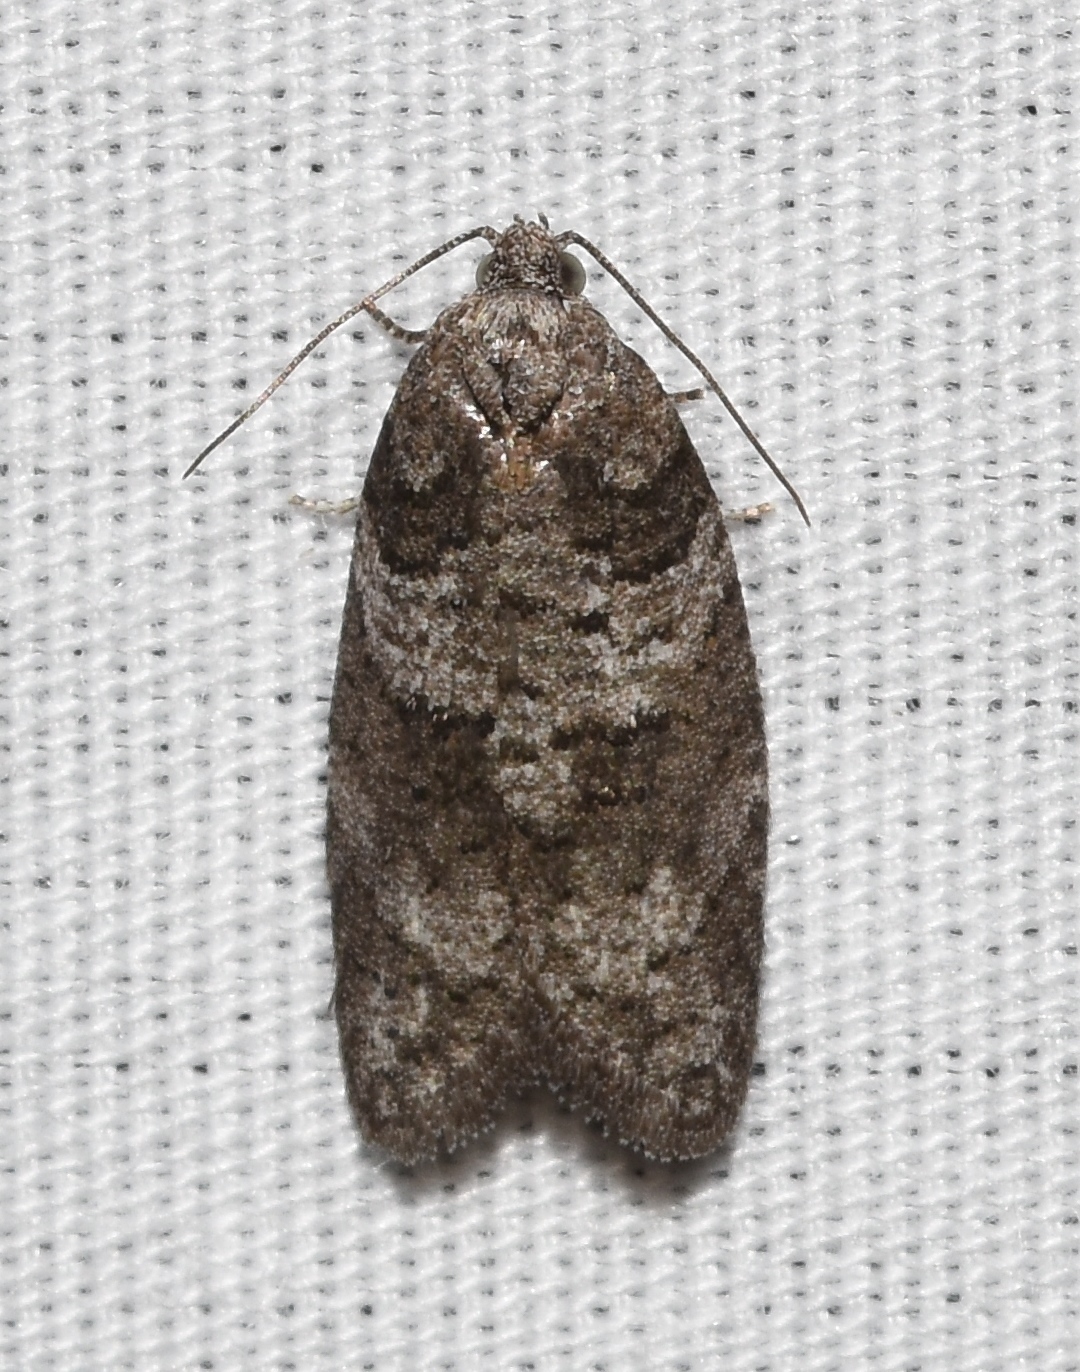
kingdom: Animalia
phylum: Arthropoda
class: Insecta
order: Lepidoptera
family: Tortricidae
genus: Decodes
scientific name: Decodes basiplagana
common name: Gray-marked tortricid
